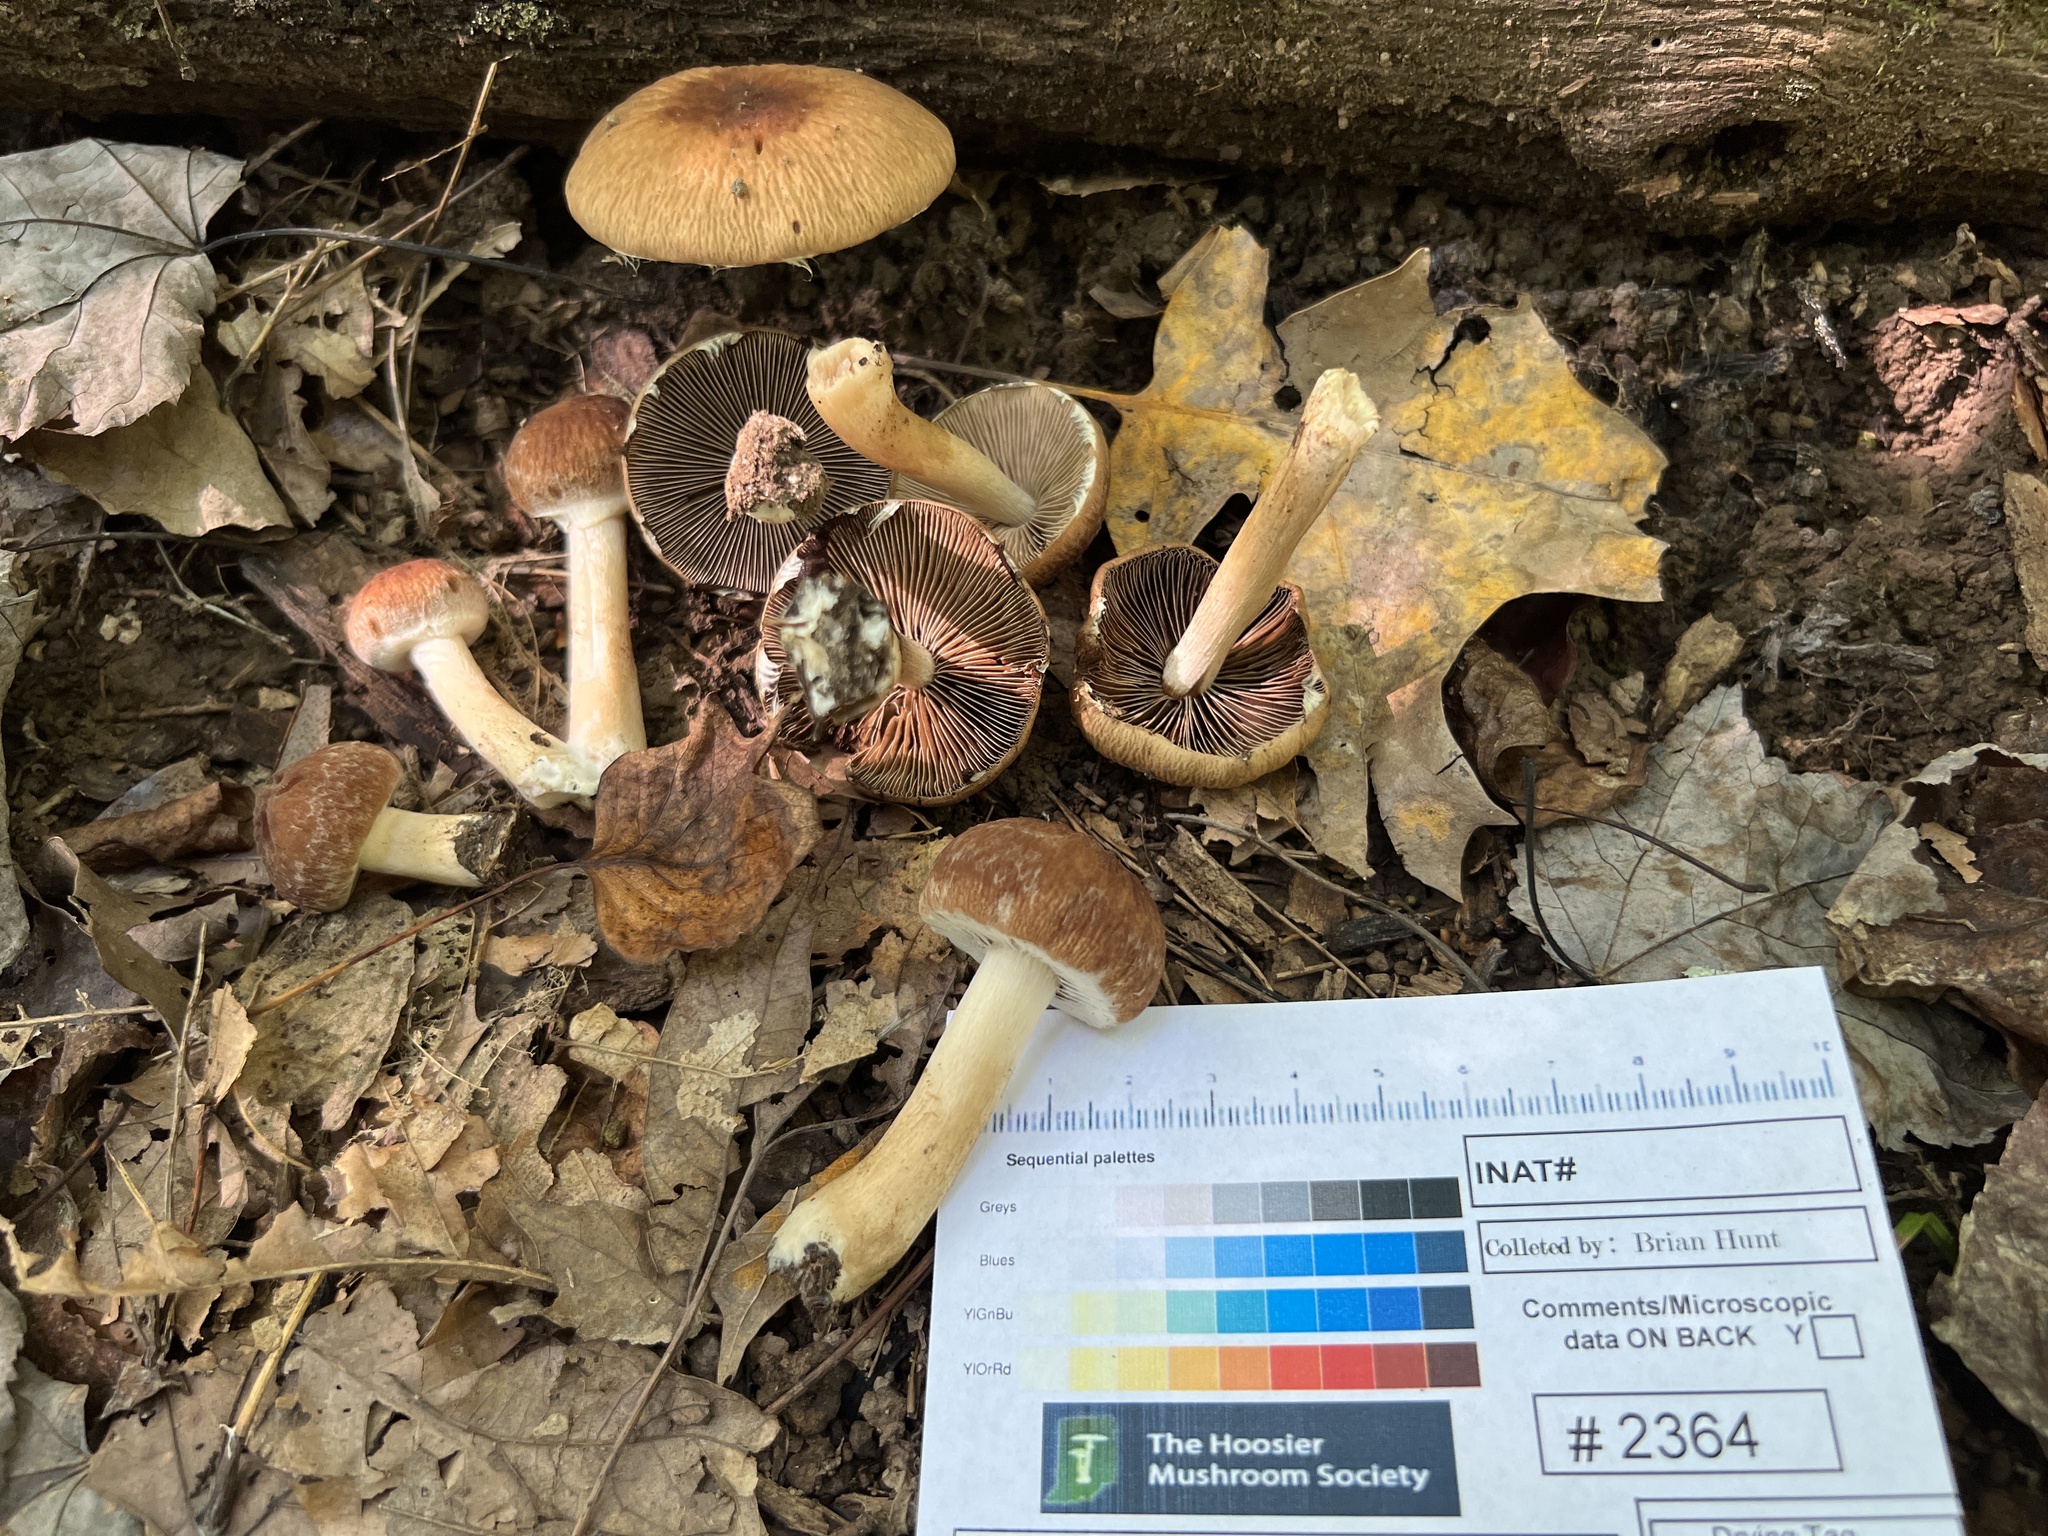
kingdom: Fungi
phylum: Basidiomycota
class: Agaricomycetes
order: Agaricales
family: Psathyrellaceae
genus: Typhrasa
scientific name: Typhrasa gossypina
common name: Wrinkled psathyrella
